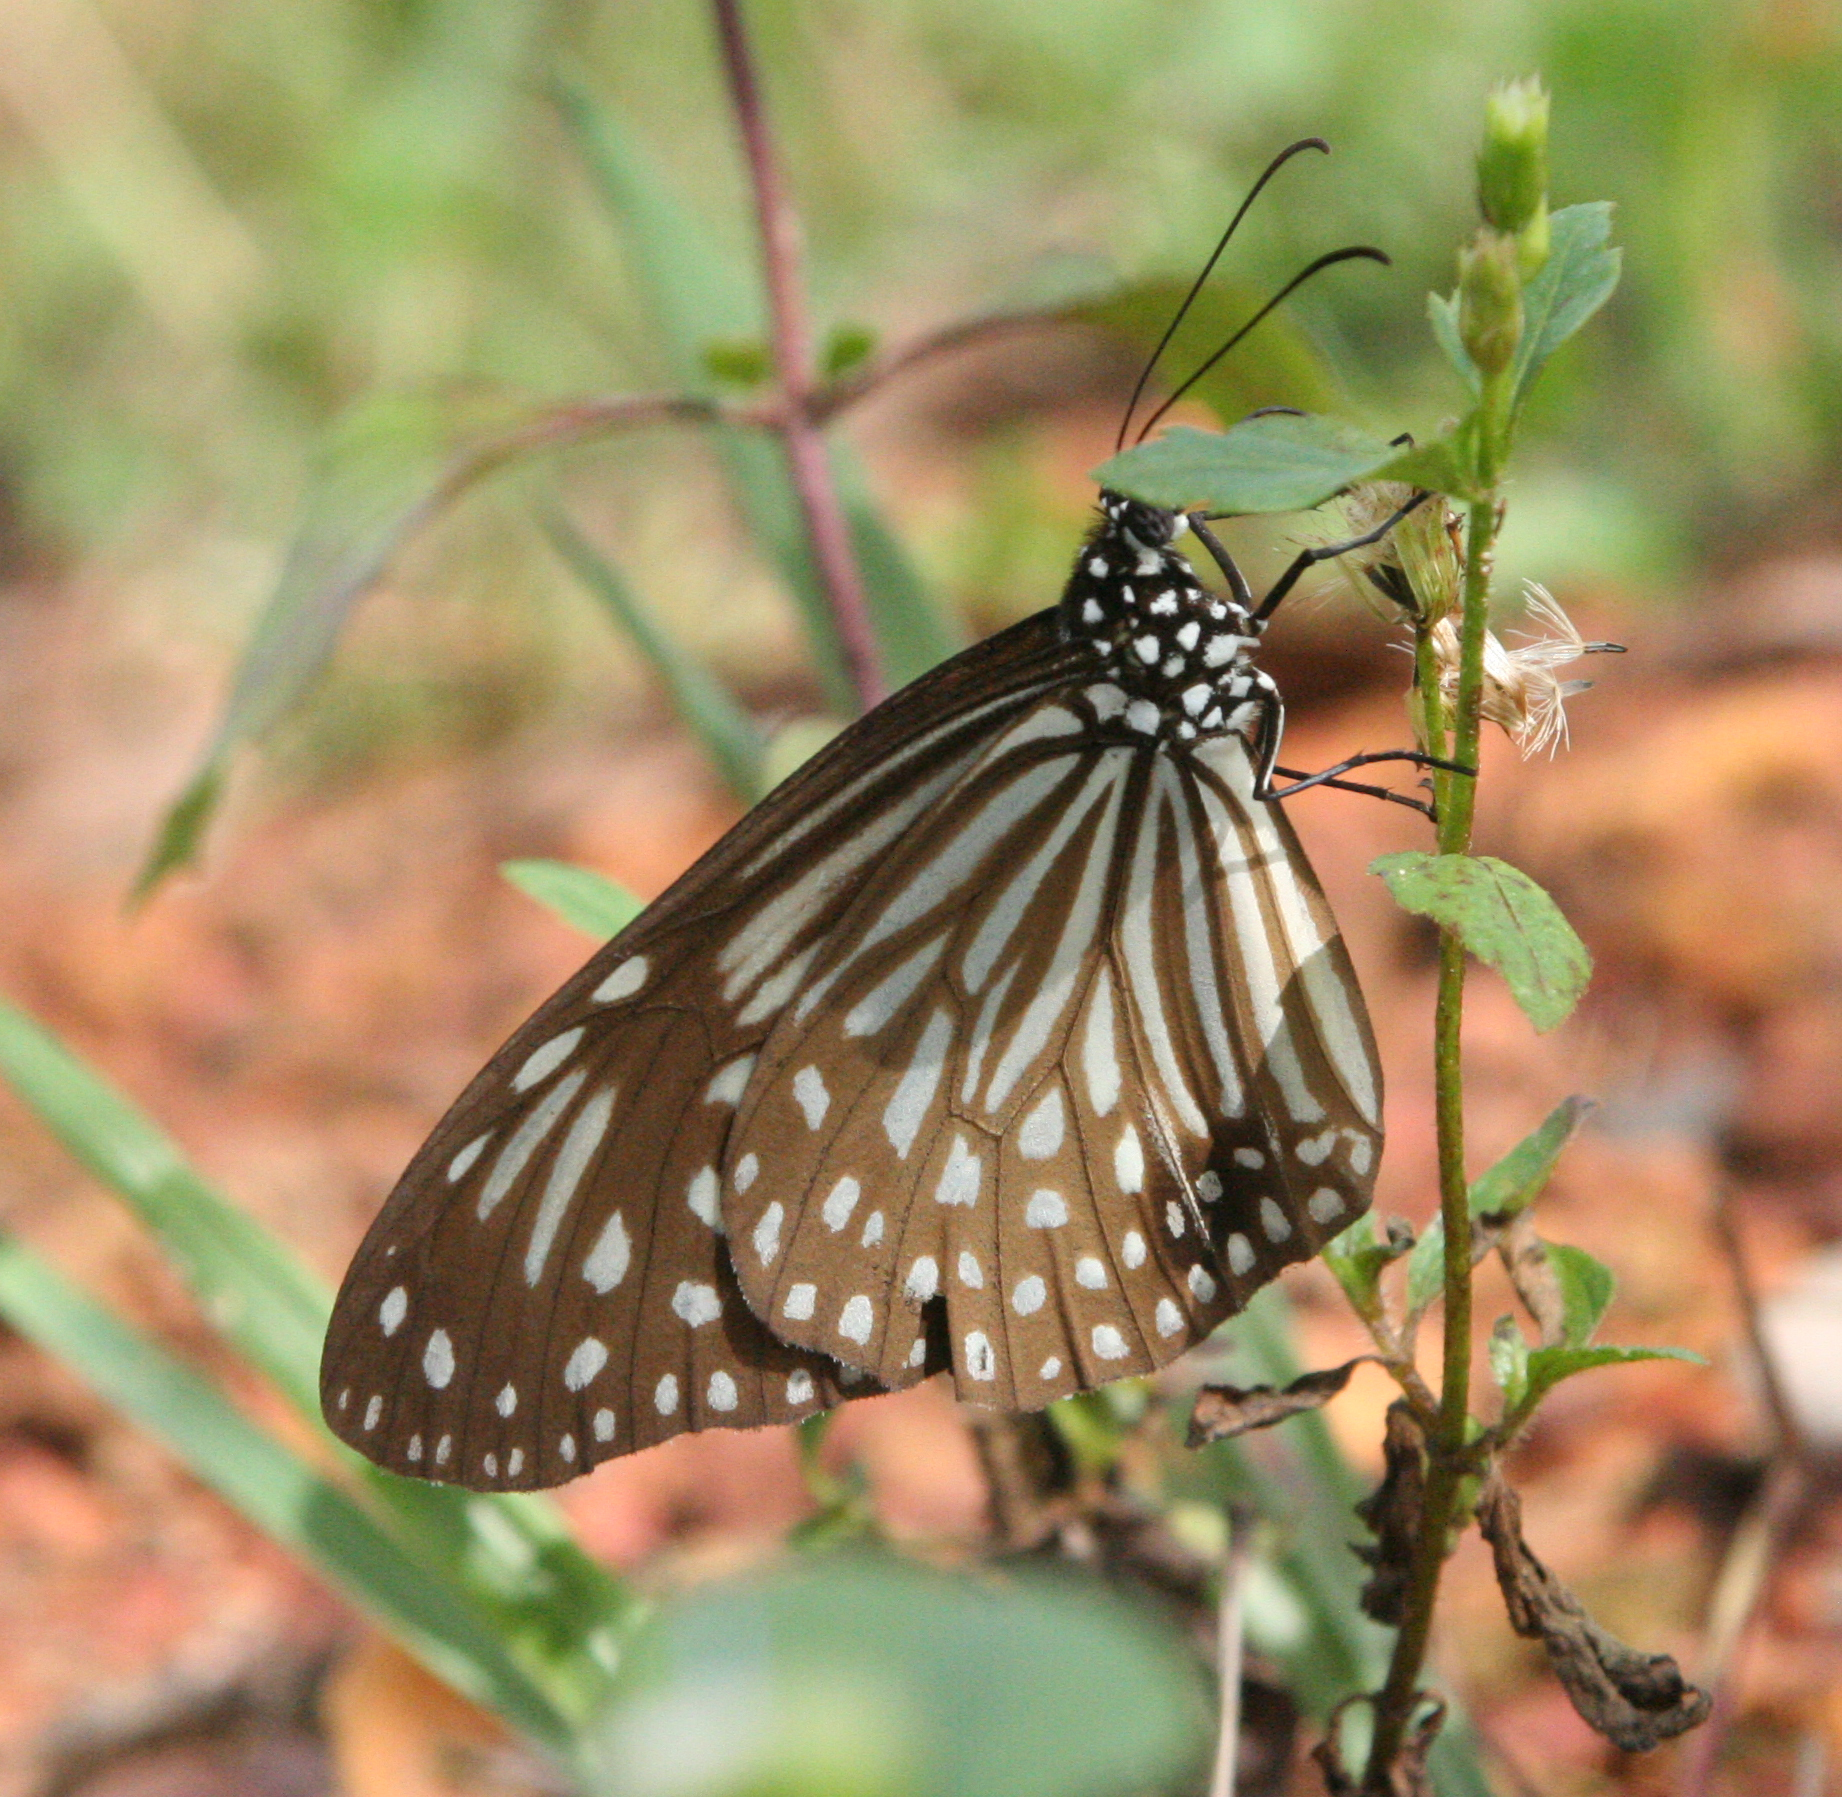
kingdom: Animalia
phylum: Arthropoda
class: Insecta
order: Lepidoptera
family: Nymphalidae
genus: Parantica
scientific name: Parantica agleoides
